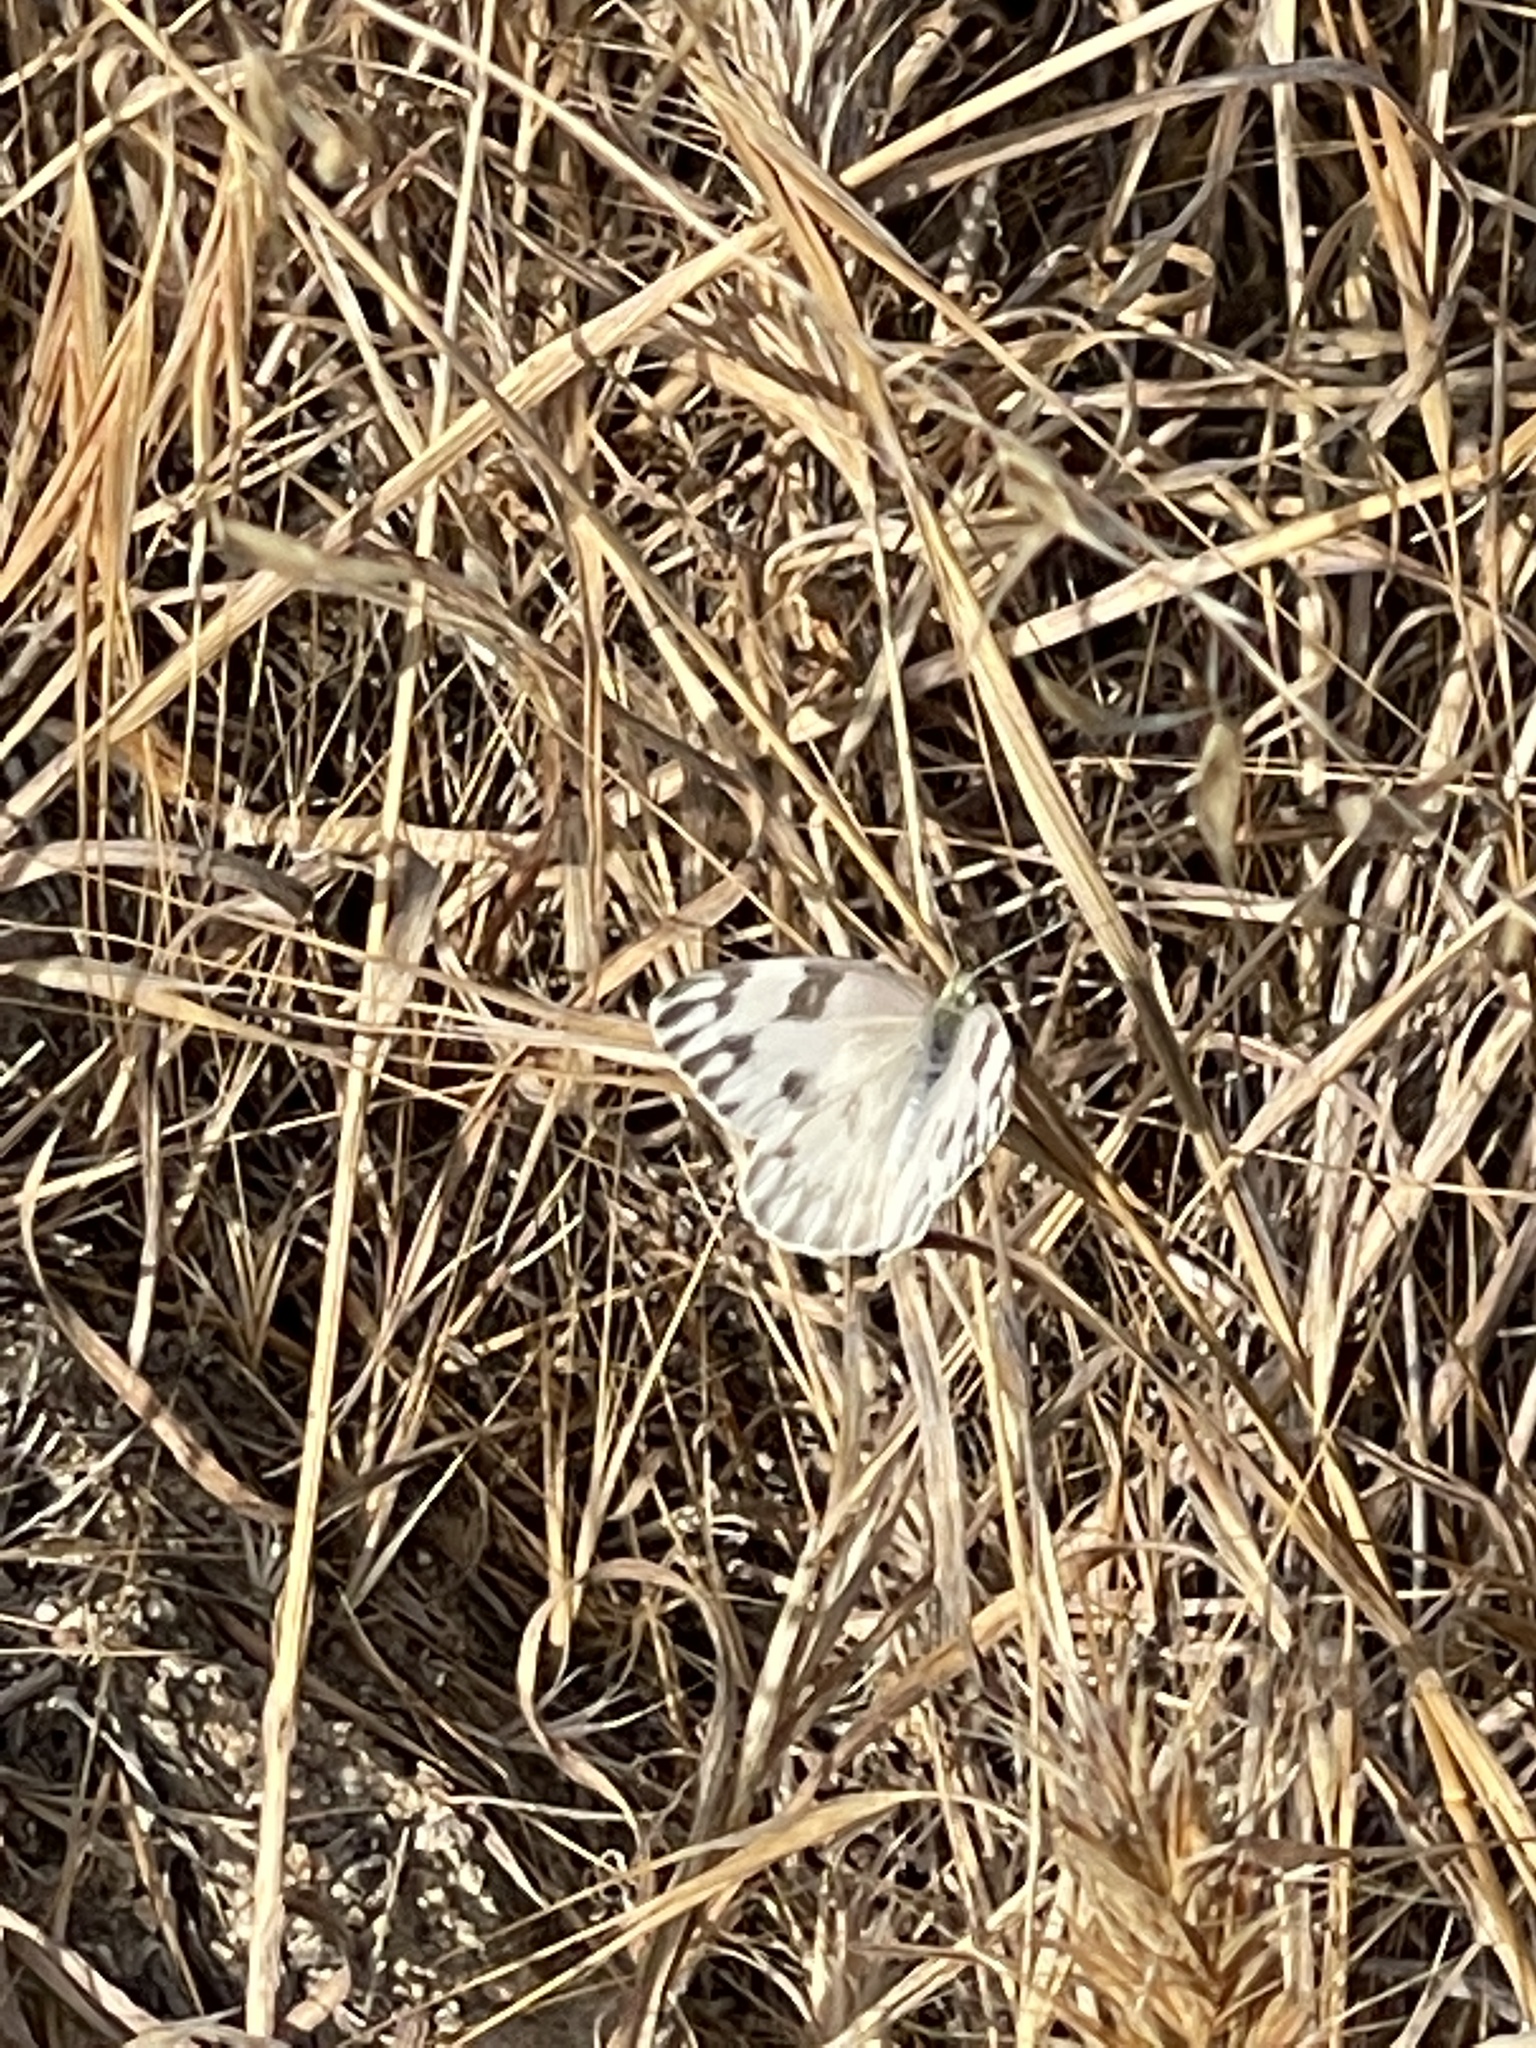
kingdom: Animalia
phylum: Arthropoda
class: Insecta
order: Lepidoptera
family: Pieridae
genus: Pontia
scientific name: Pontia protodice
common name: Checkered white
